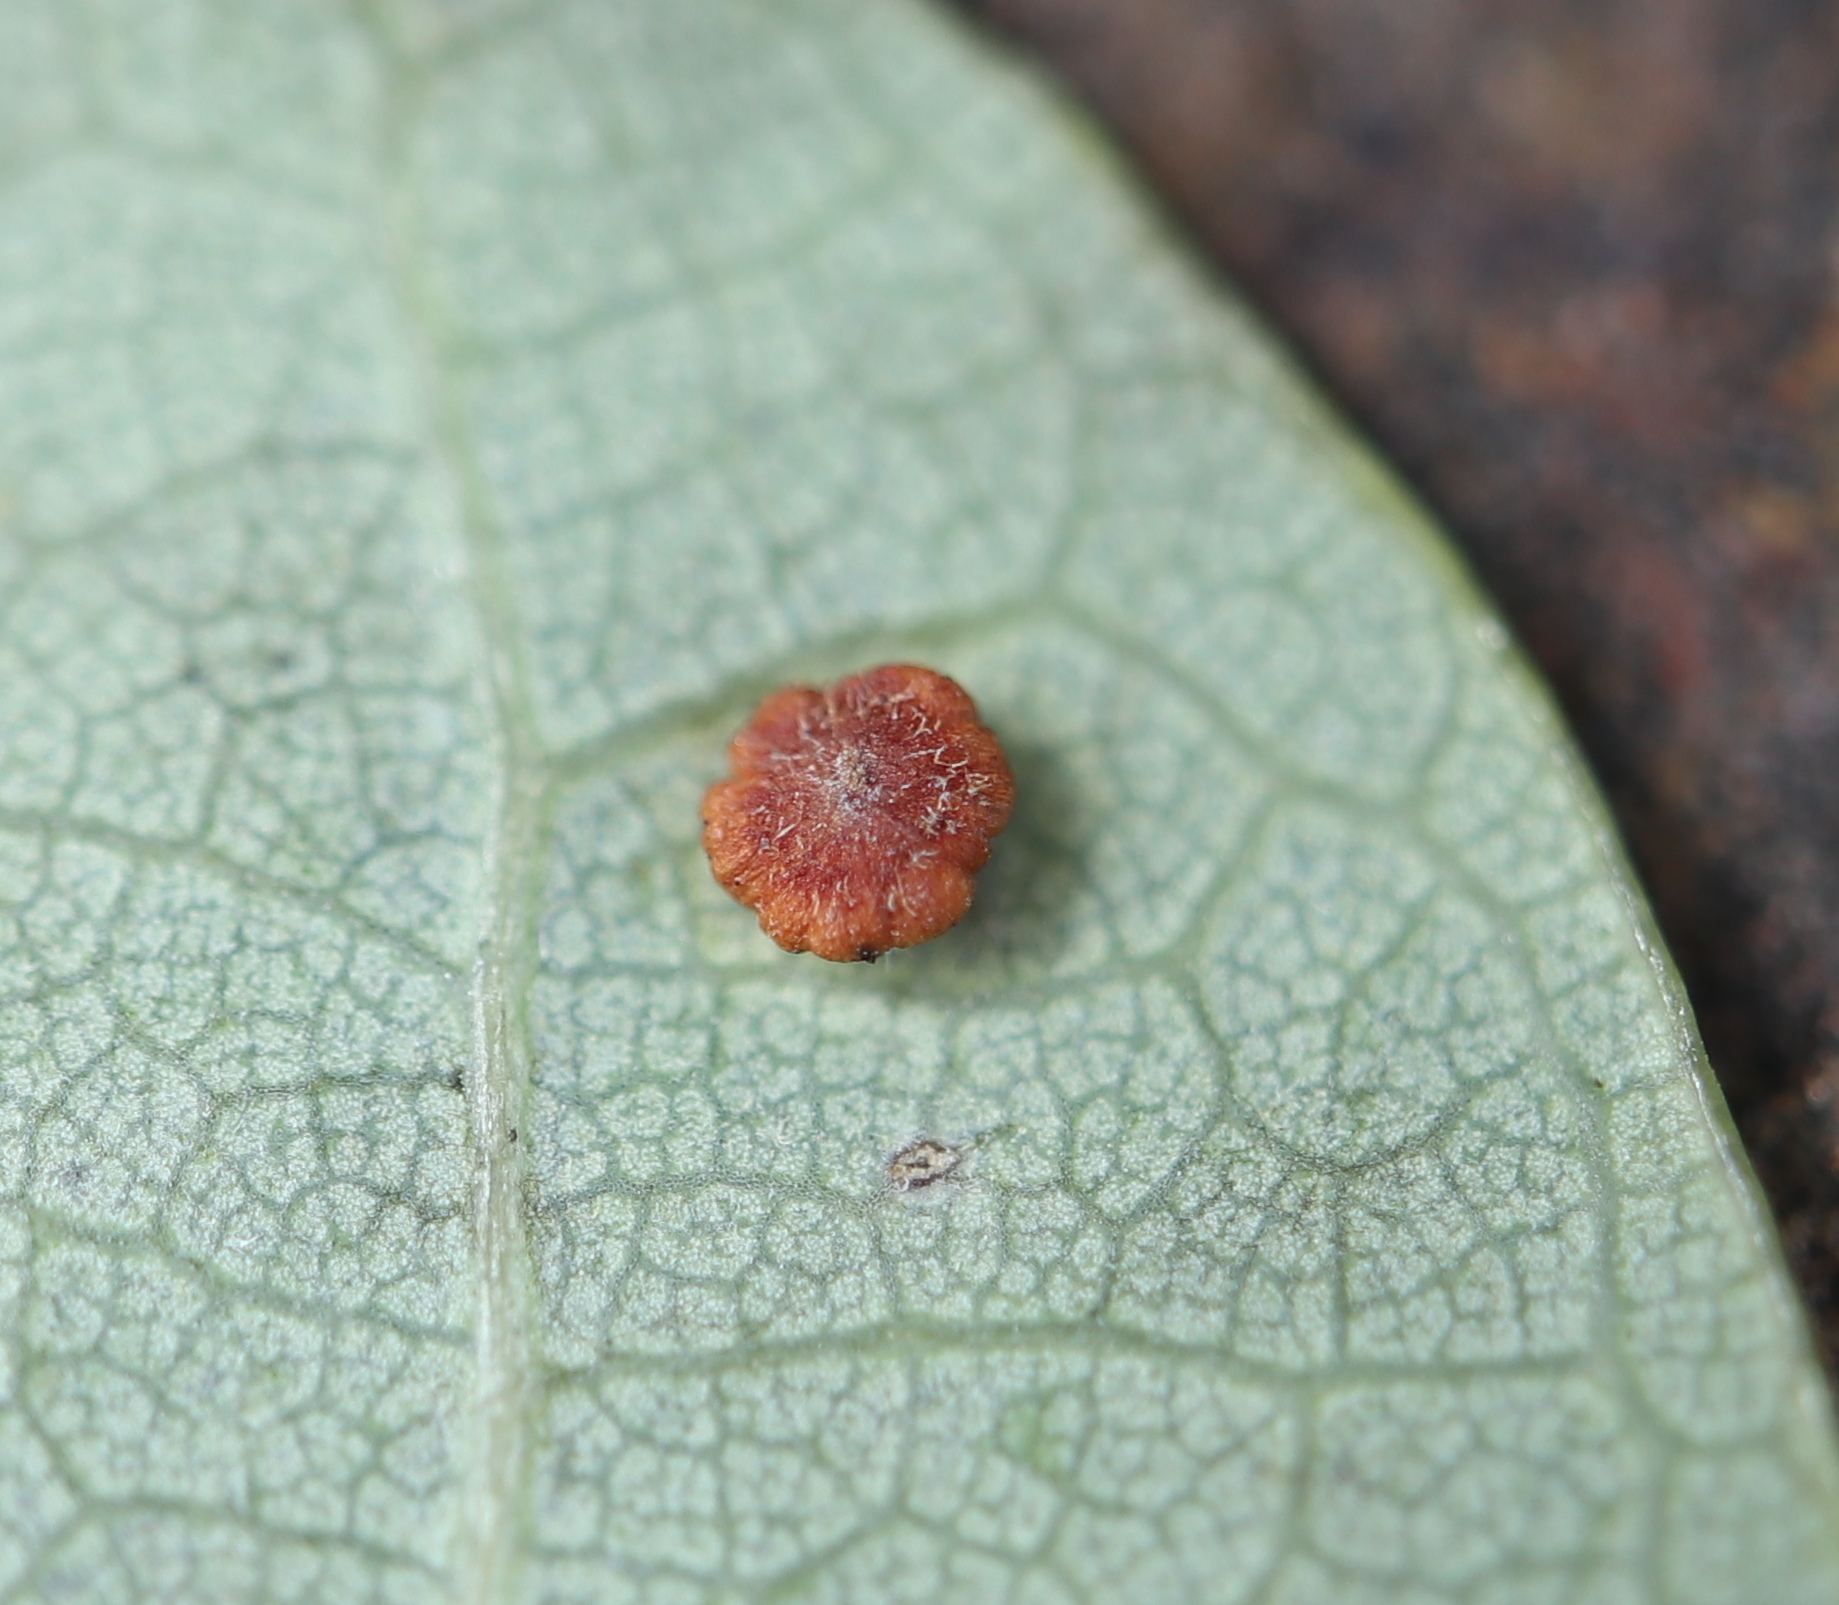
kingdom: Animalia
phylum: Arthropoda
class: Insecta
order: Hymenoptera
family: Cynipidae
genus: Neuroterus
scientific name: Neuroterus
